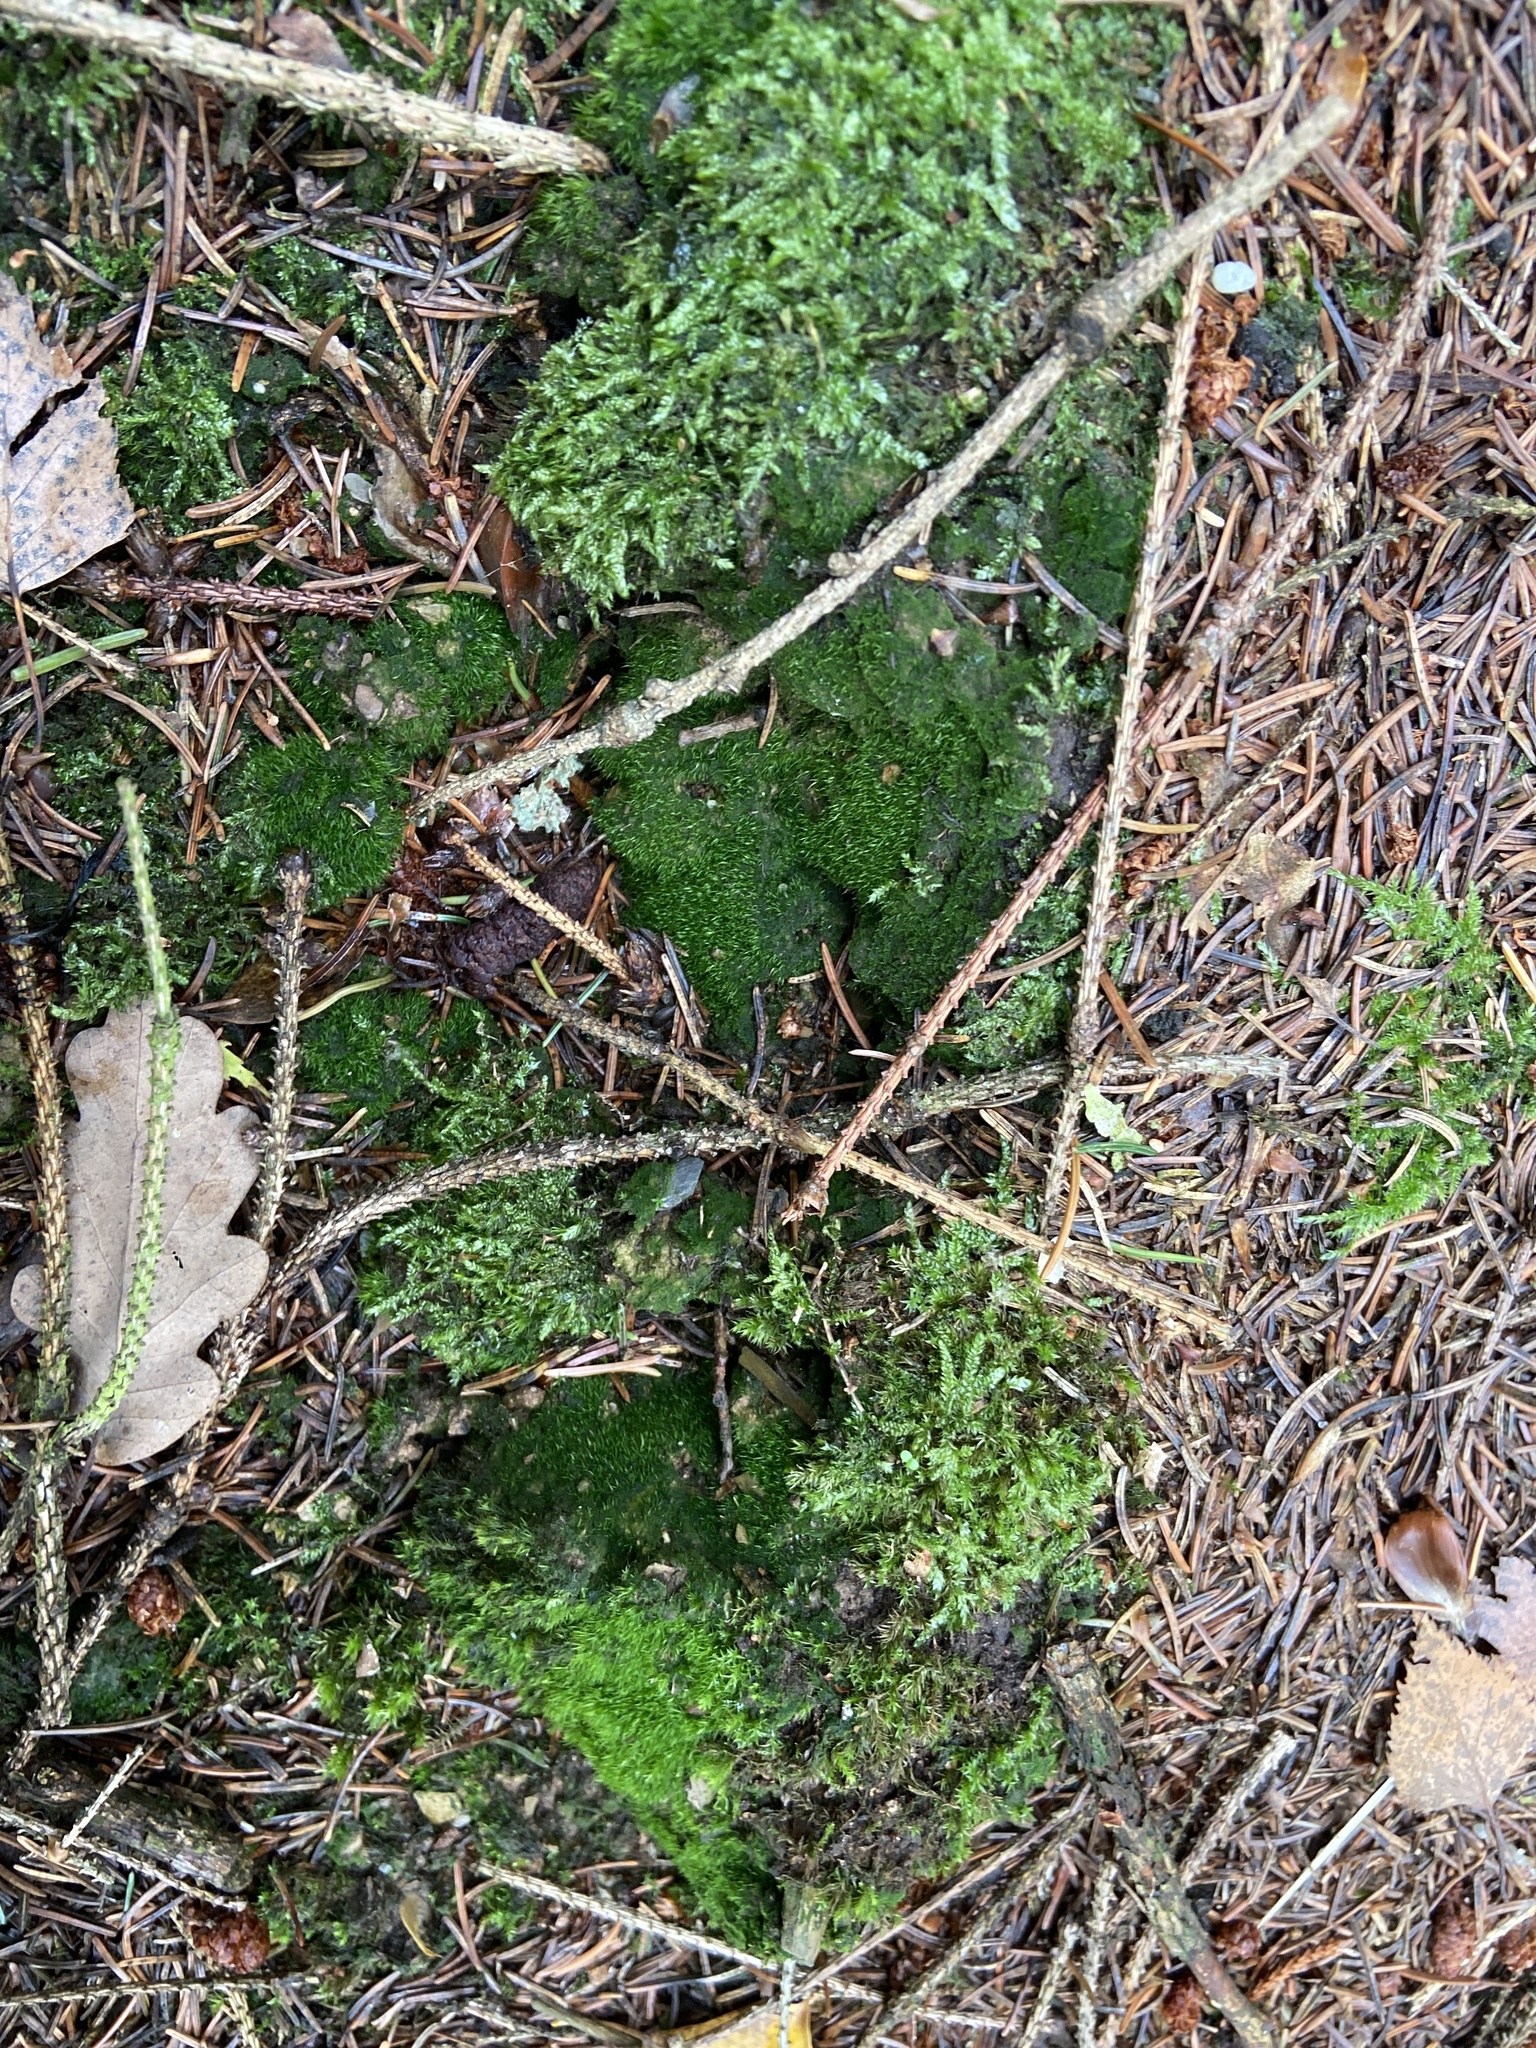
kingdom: Plantae
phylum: Bryophyta
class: Bryopsida
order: Dicranales
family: Dicranellaceae
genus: Dicranella
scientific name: Dicranella heteromalla
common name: Silky forklet moss
